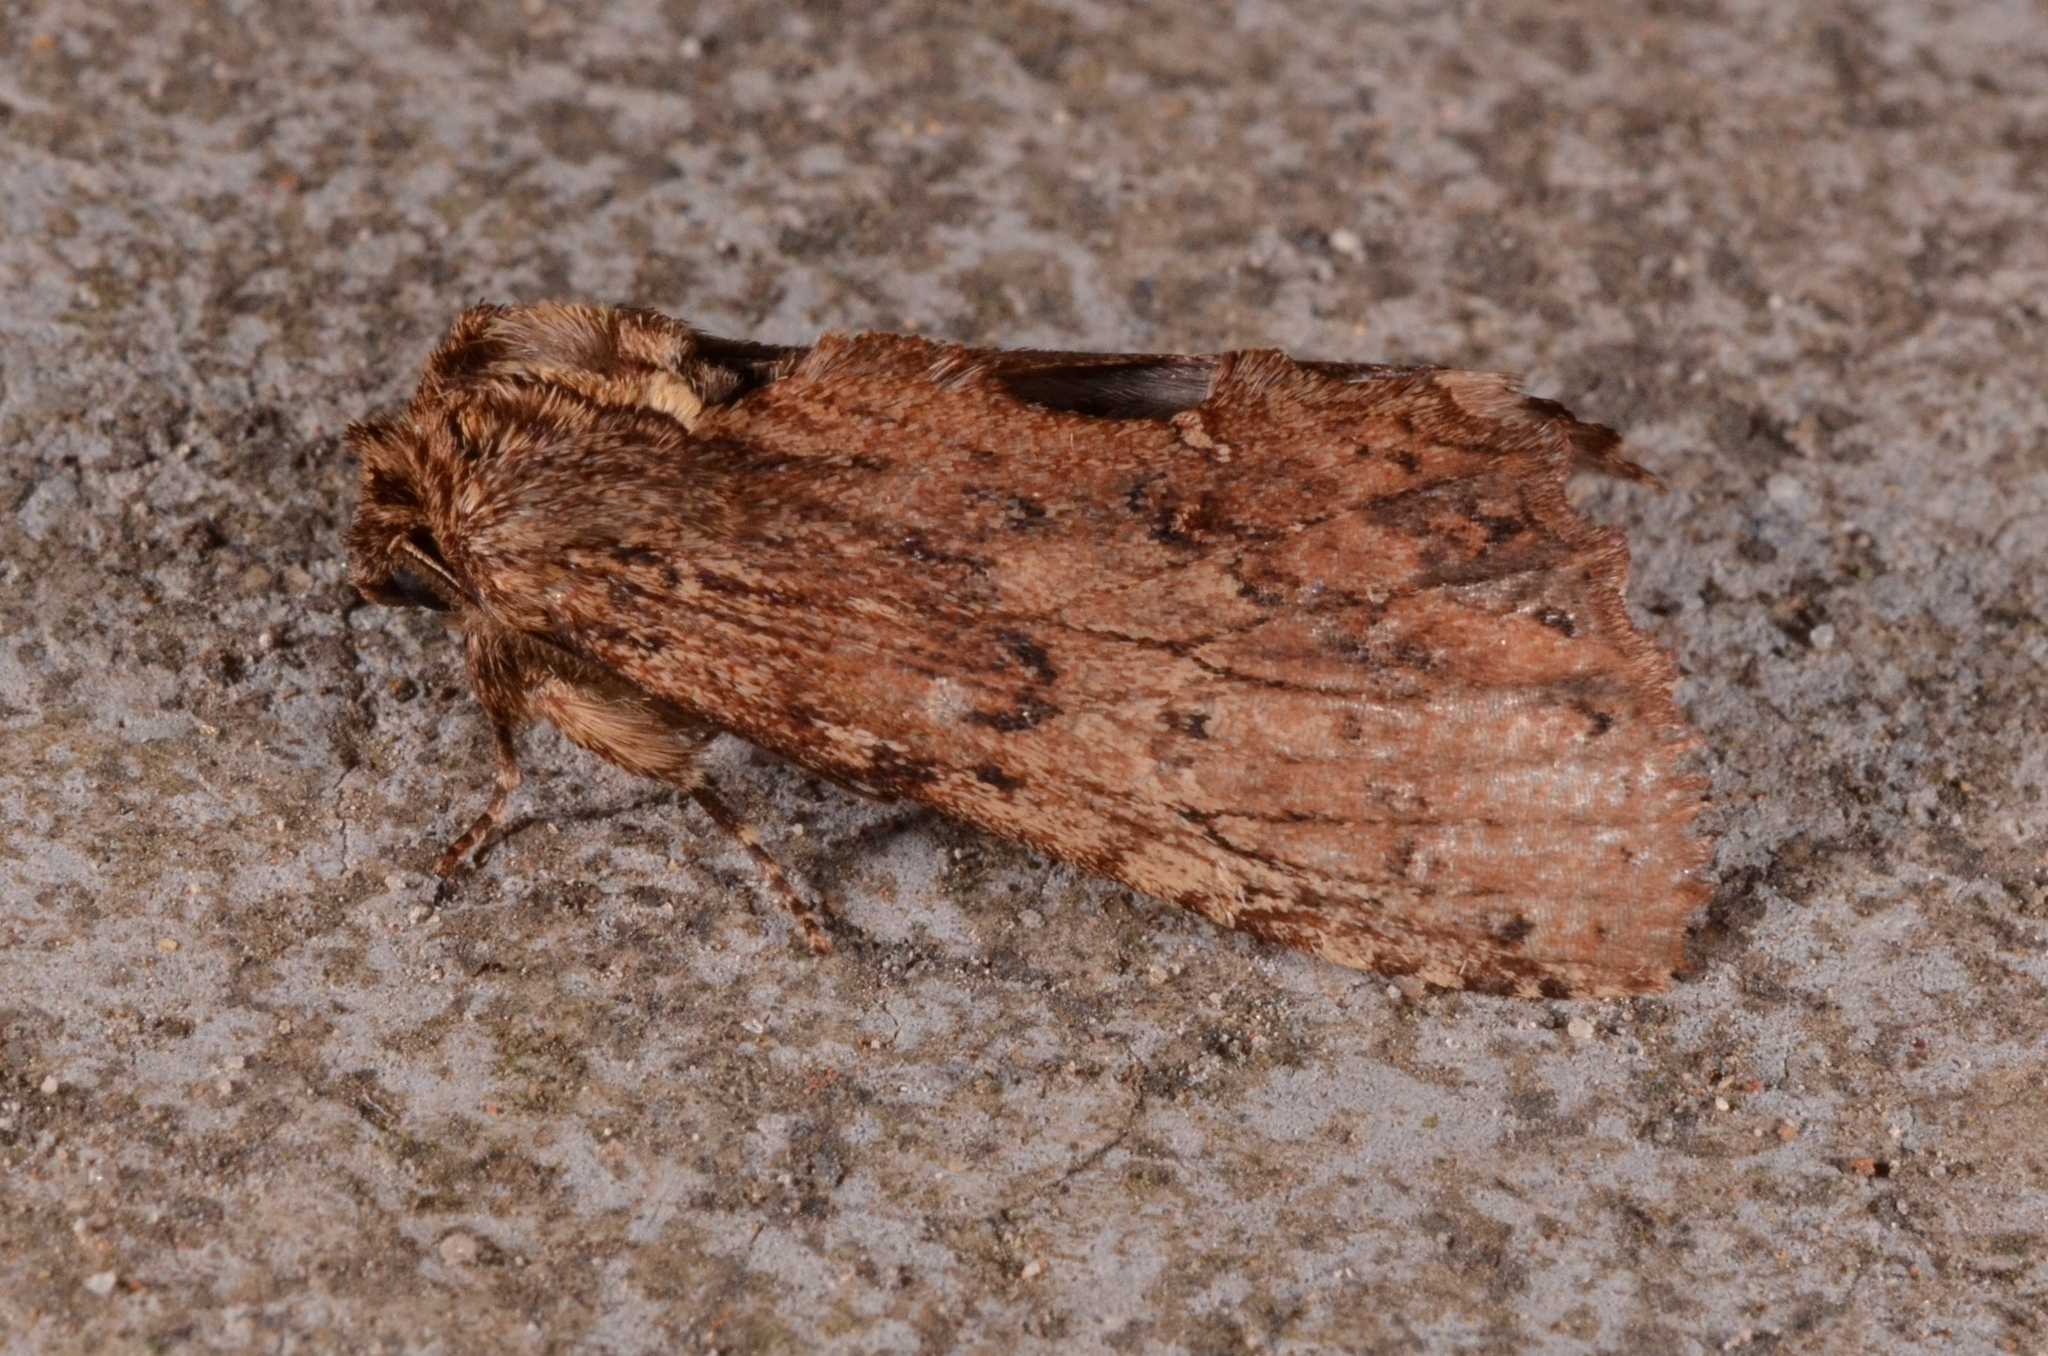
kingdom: Animalia
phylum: Arthropoda
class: Insecta
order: Lepidoptera
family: Notodontidae
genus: Spatalina
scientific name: Spatalina desiccata
